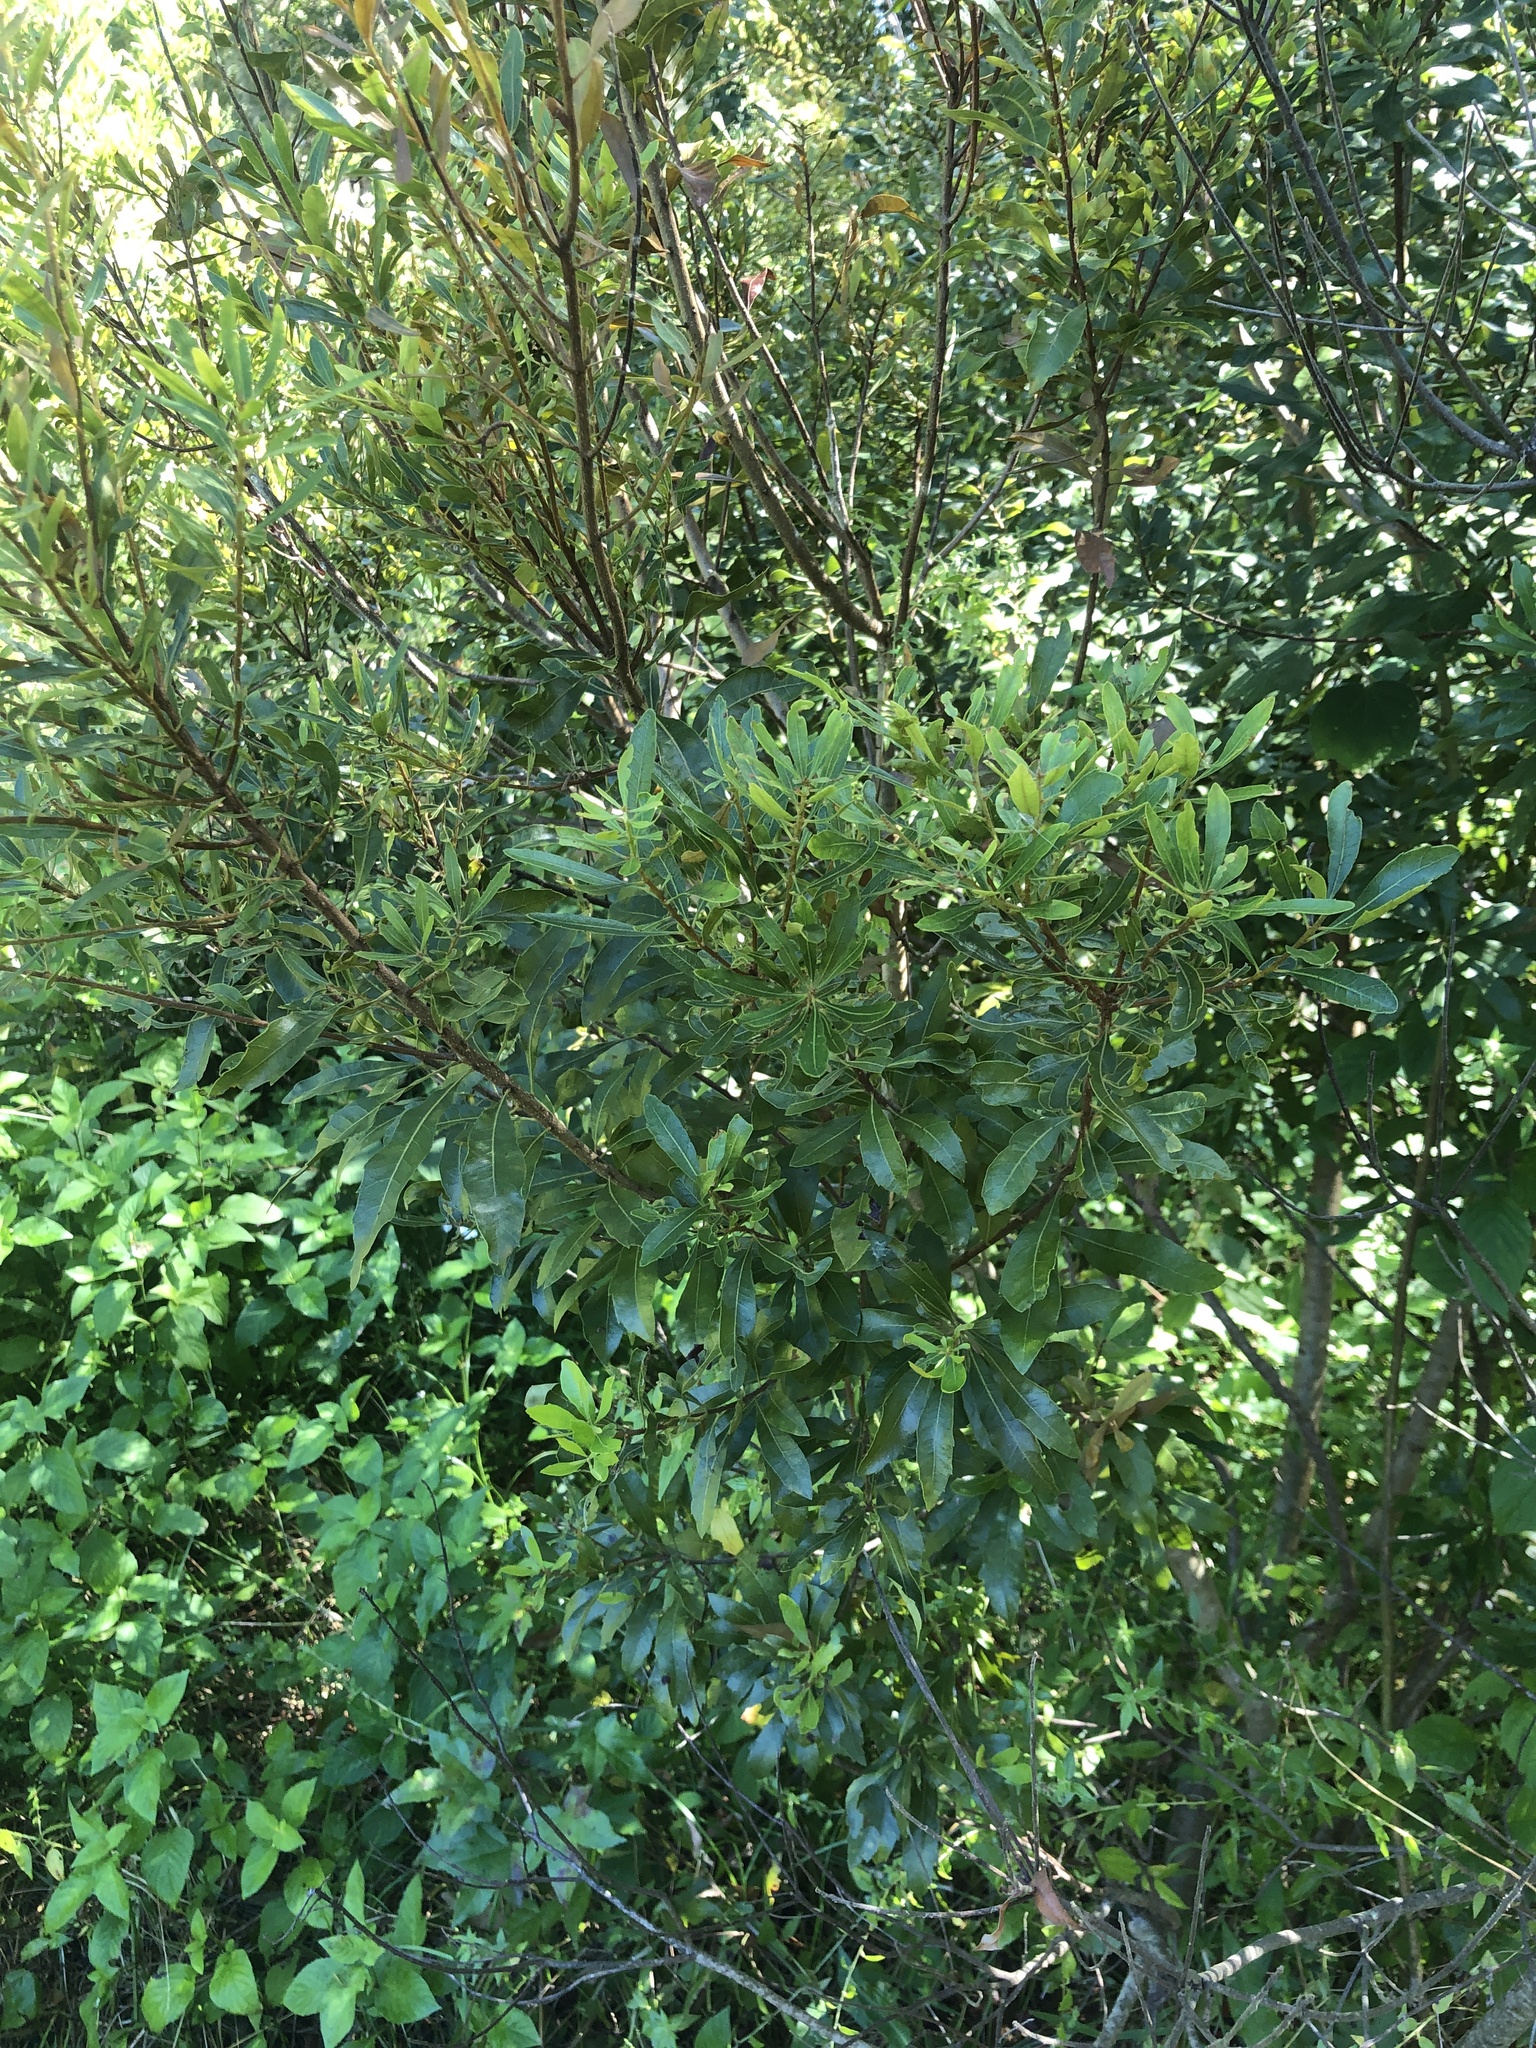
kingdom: Plantae
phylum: Tracheophyta
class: Magnoliopsida
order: Fagales
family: Myricaceae
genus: Morella
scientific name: Morella cerifera
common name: Wax myrtle
